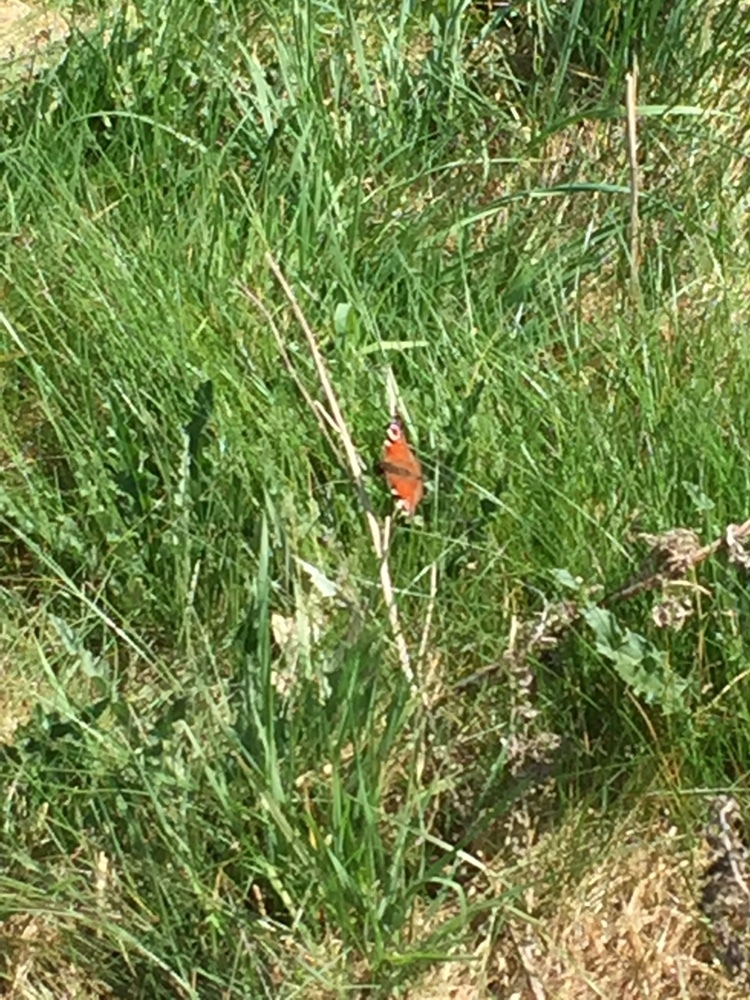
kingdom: Animalia
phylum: Arthropoda
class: Insecta
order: Lepidoptera
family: Nymphalidae
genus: Aglais
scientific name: Aglais io
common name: Peacock
